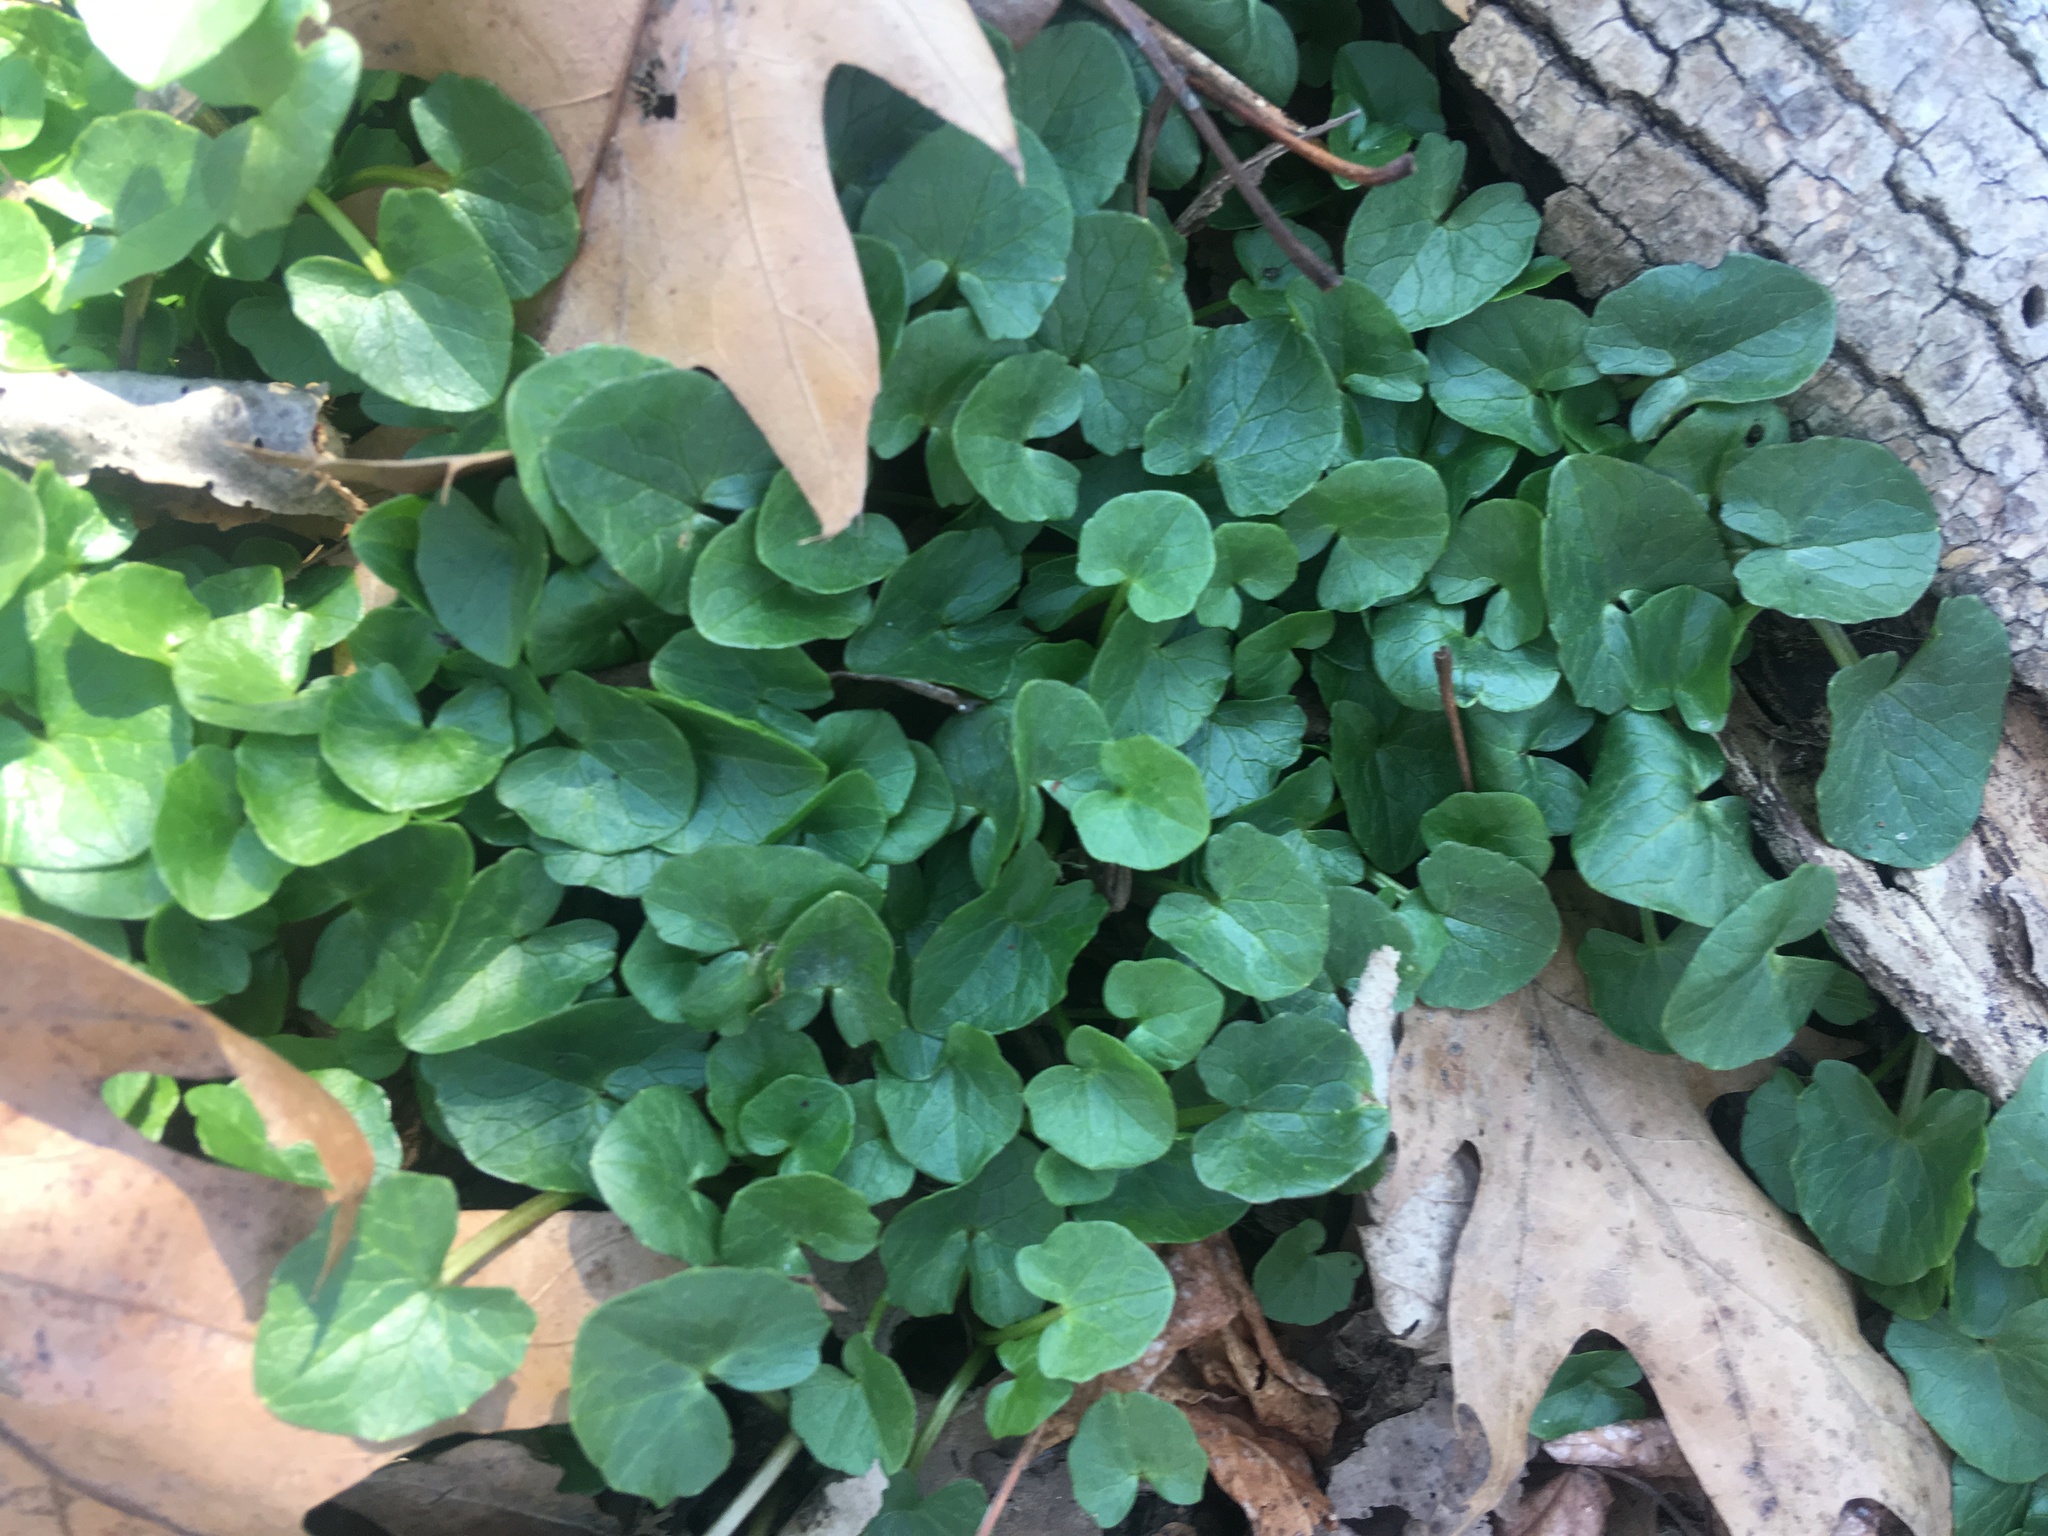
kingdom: Plantae
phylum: Tracheophyta
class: Magnoliopsida
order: Ranunculales
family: Ranunculaceae
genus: Ficaria
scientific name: Ficaria verna
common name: Lesser celandine
